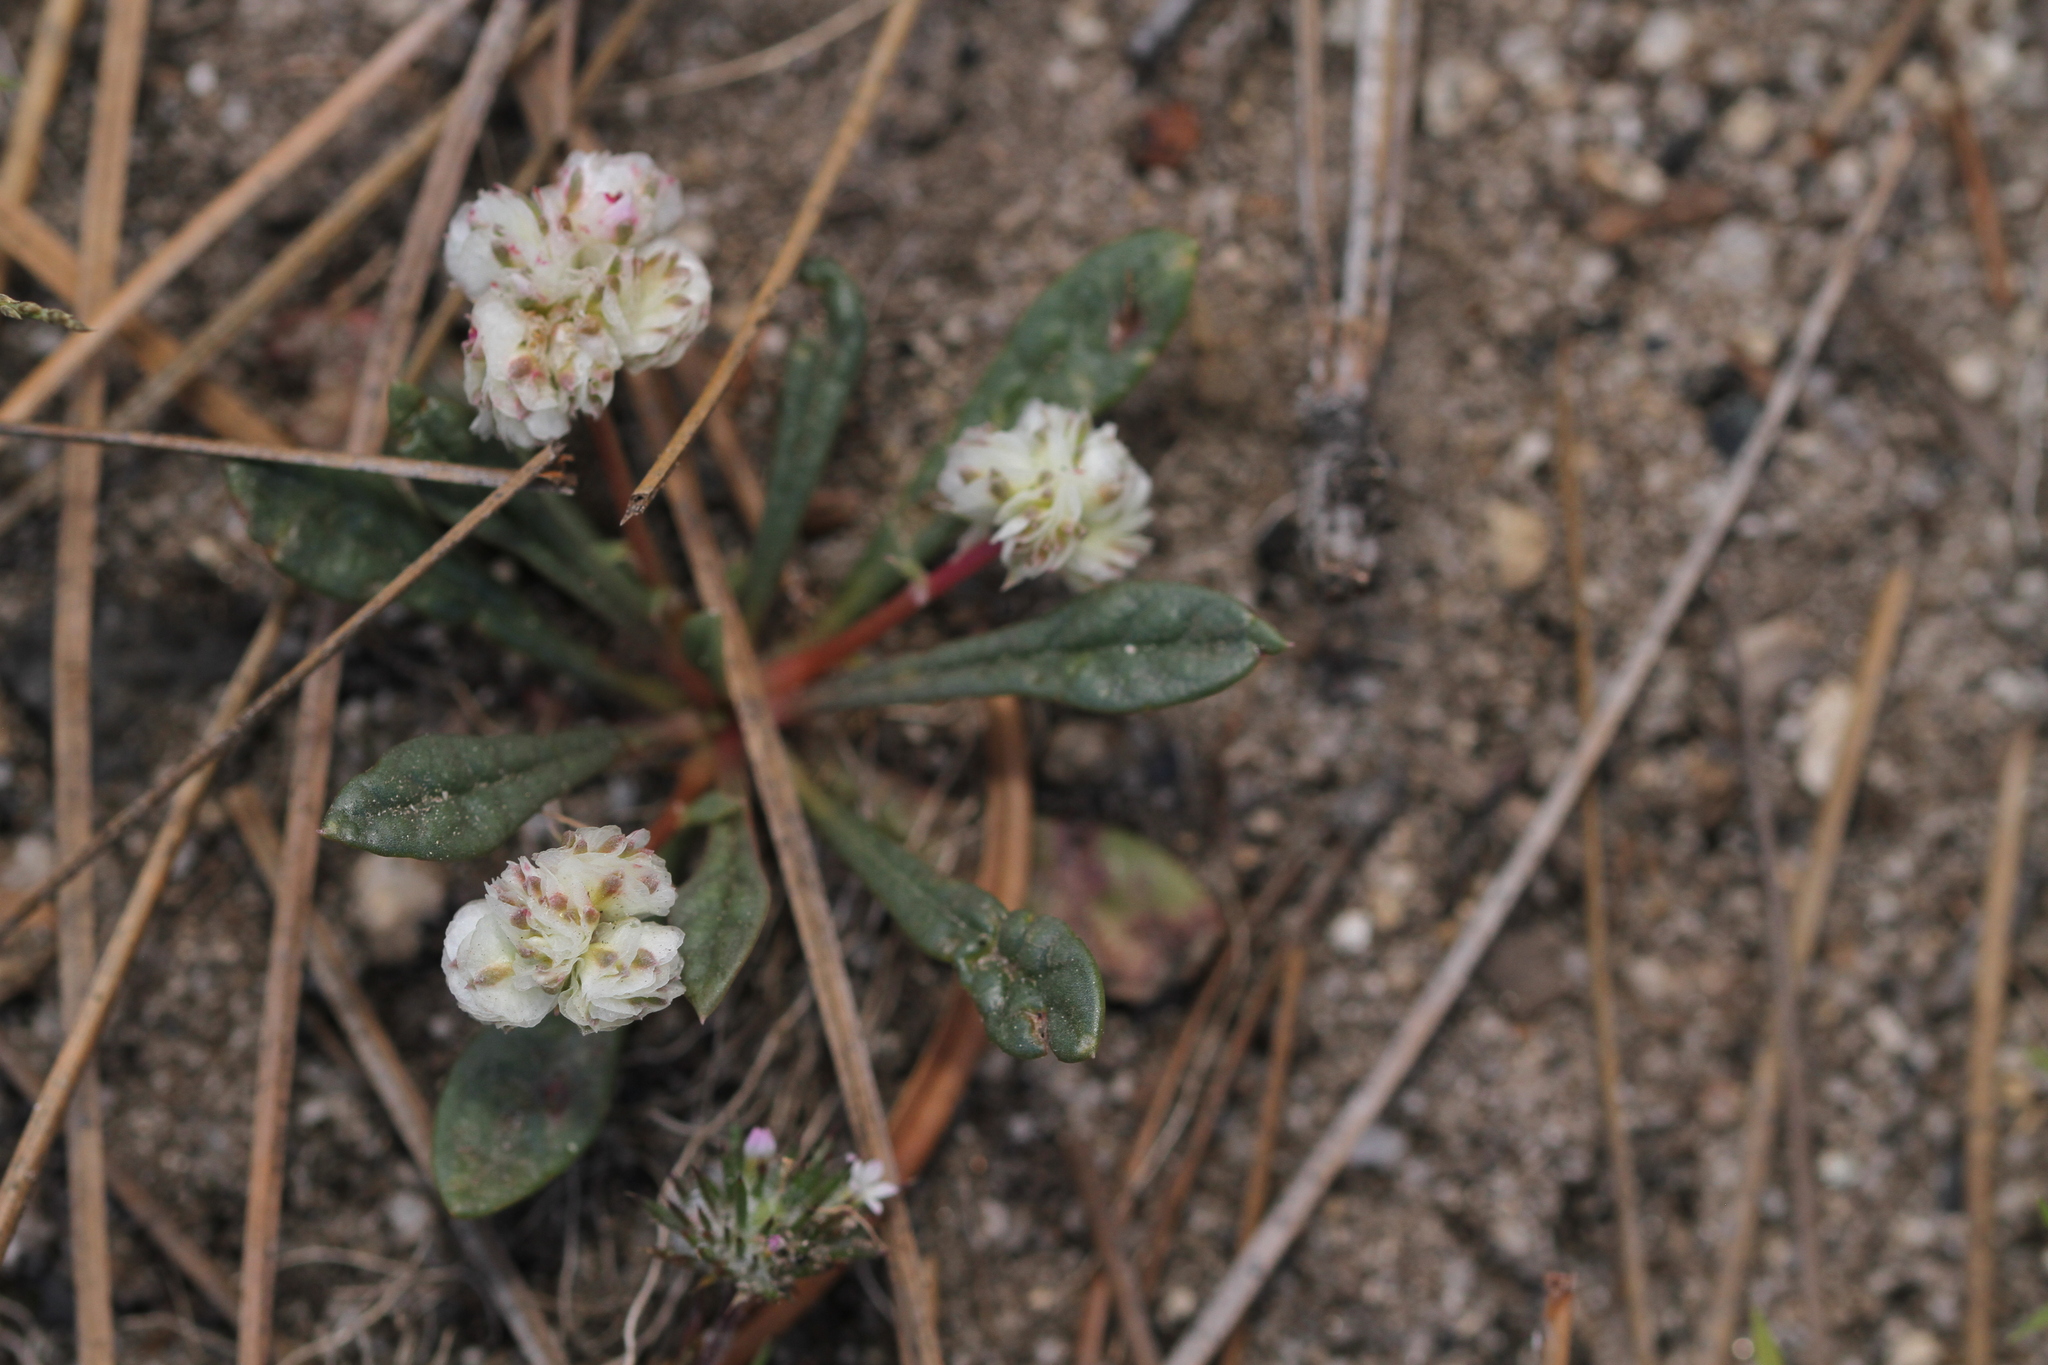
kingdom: Plantae
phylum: Tracheophyta
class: Magnoliopsida
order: Caryophyllales
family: Montiaceae
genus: Calyptridium
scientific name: Calyptridium monospermum
